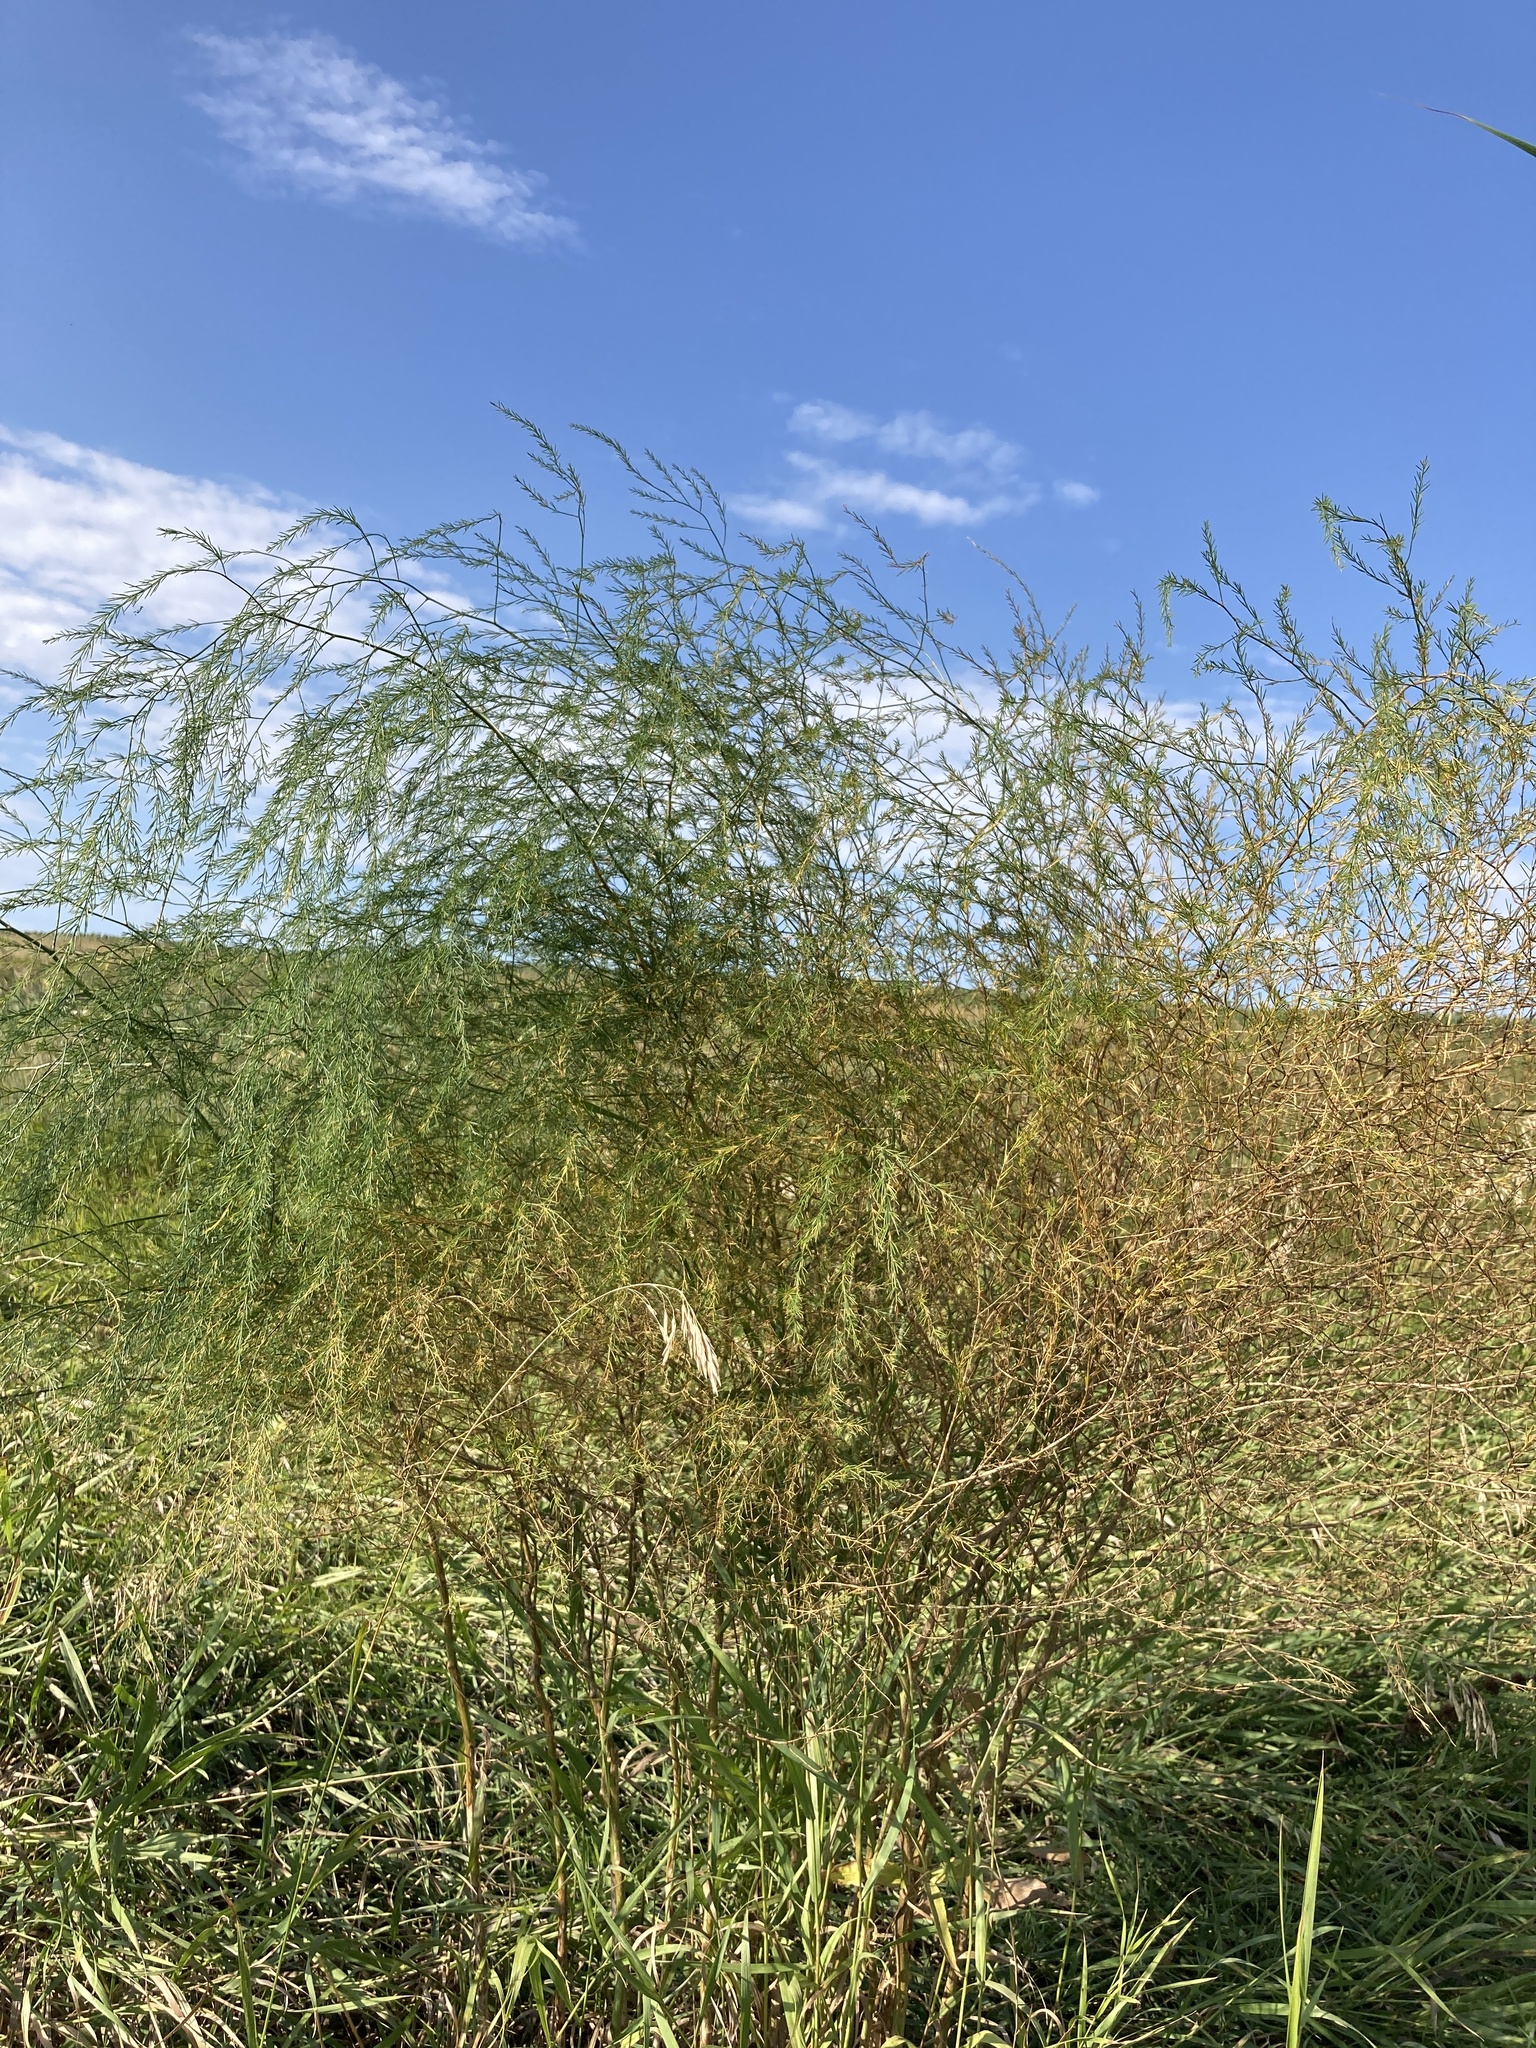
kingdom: Plantae
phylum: Tracheophyta
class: Liliopsida
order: Asparagales
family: Asparagaceae
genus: Asparagus
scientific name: Asparagus officinalis
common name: Garden asparagus
